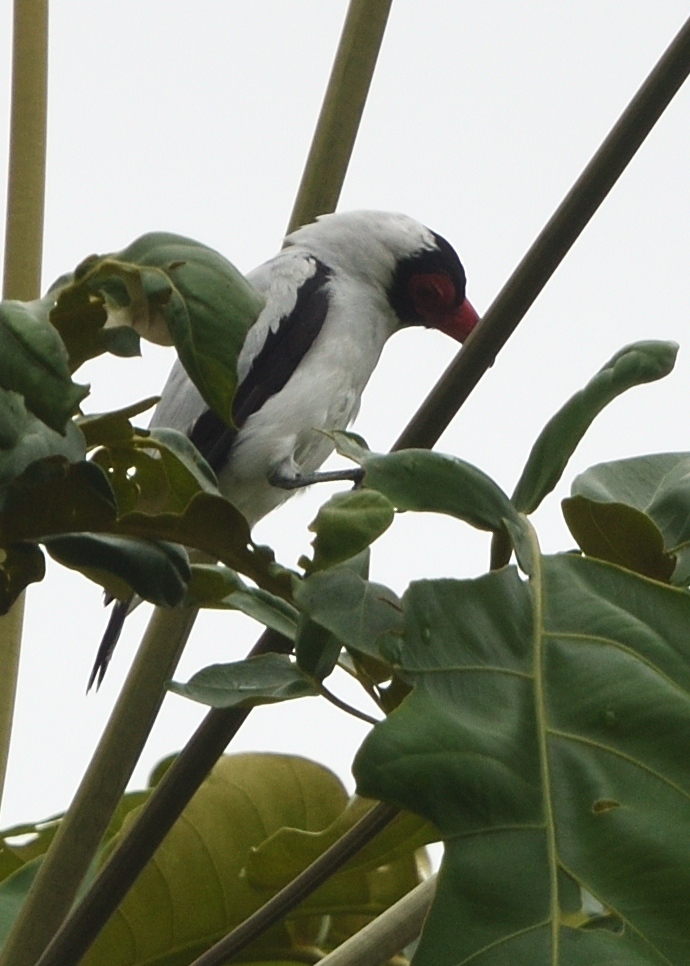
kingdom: Animalia
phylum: Chordata
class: Aves
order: Passeriformes
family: Cotingidae
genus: Tityra
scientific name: Tityra cayana
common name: Black-tailed tityra
